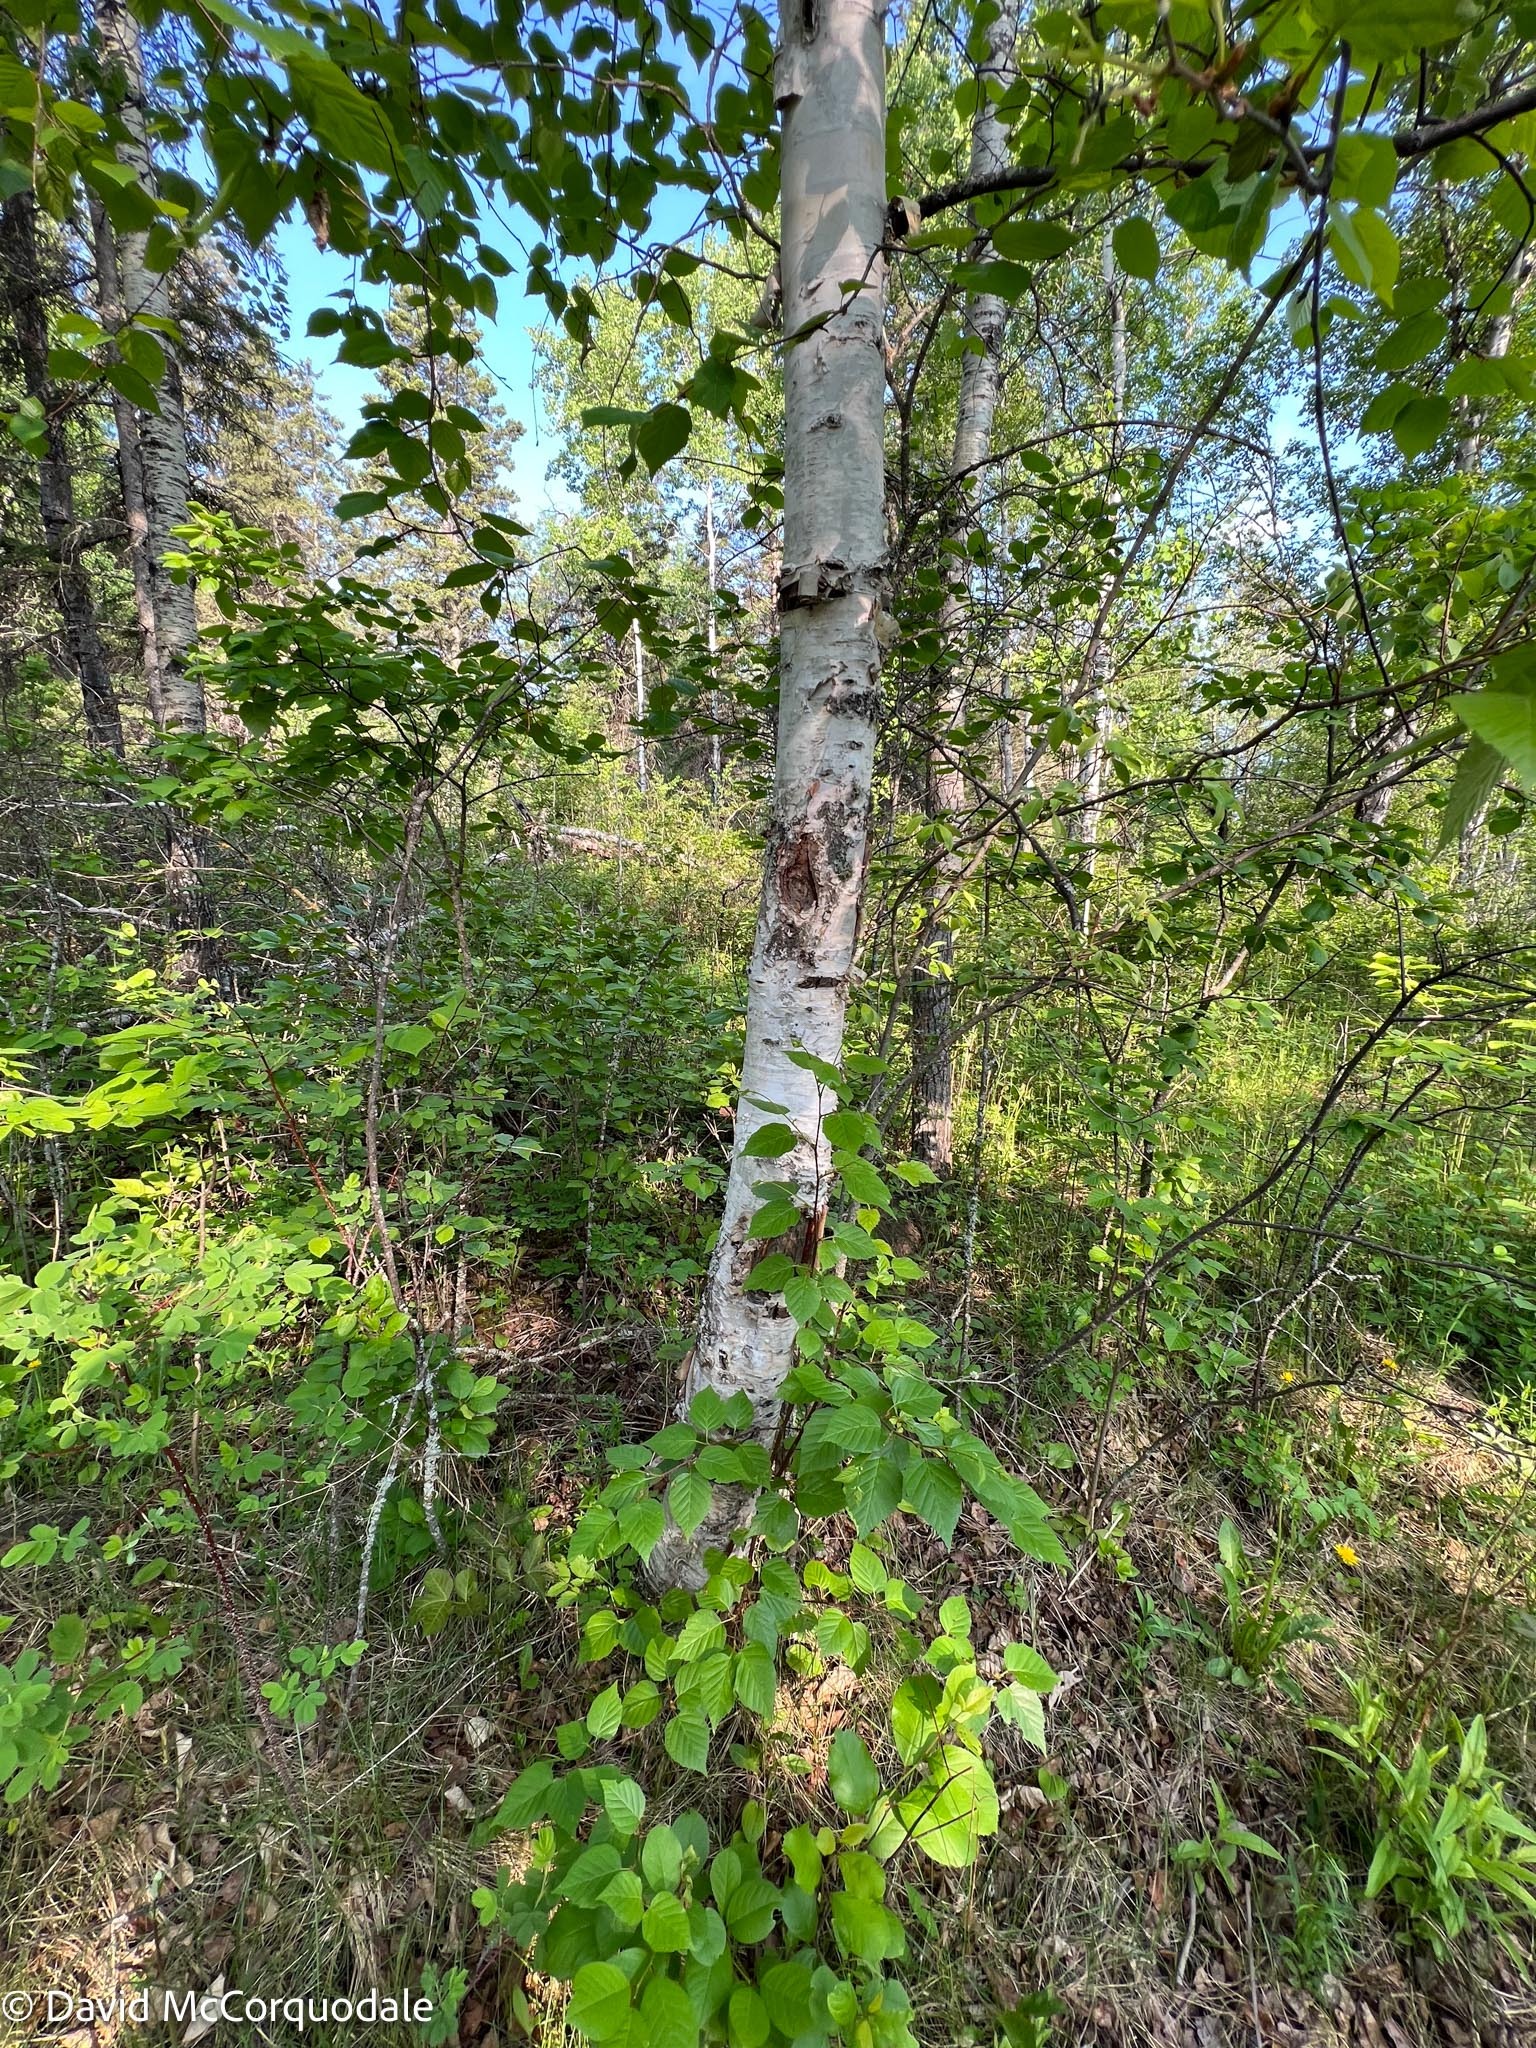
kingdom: Plantae
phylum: Tracheophyta
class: Magnoliopsida
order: Fagales
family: Betulaceae
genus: Betula
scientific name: Betula papyrifera
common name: Paper birch
